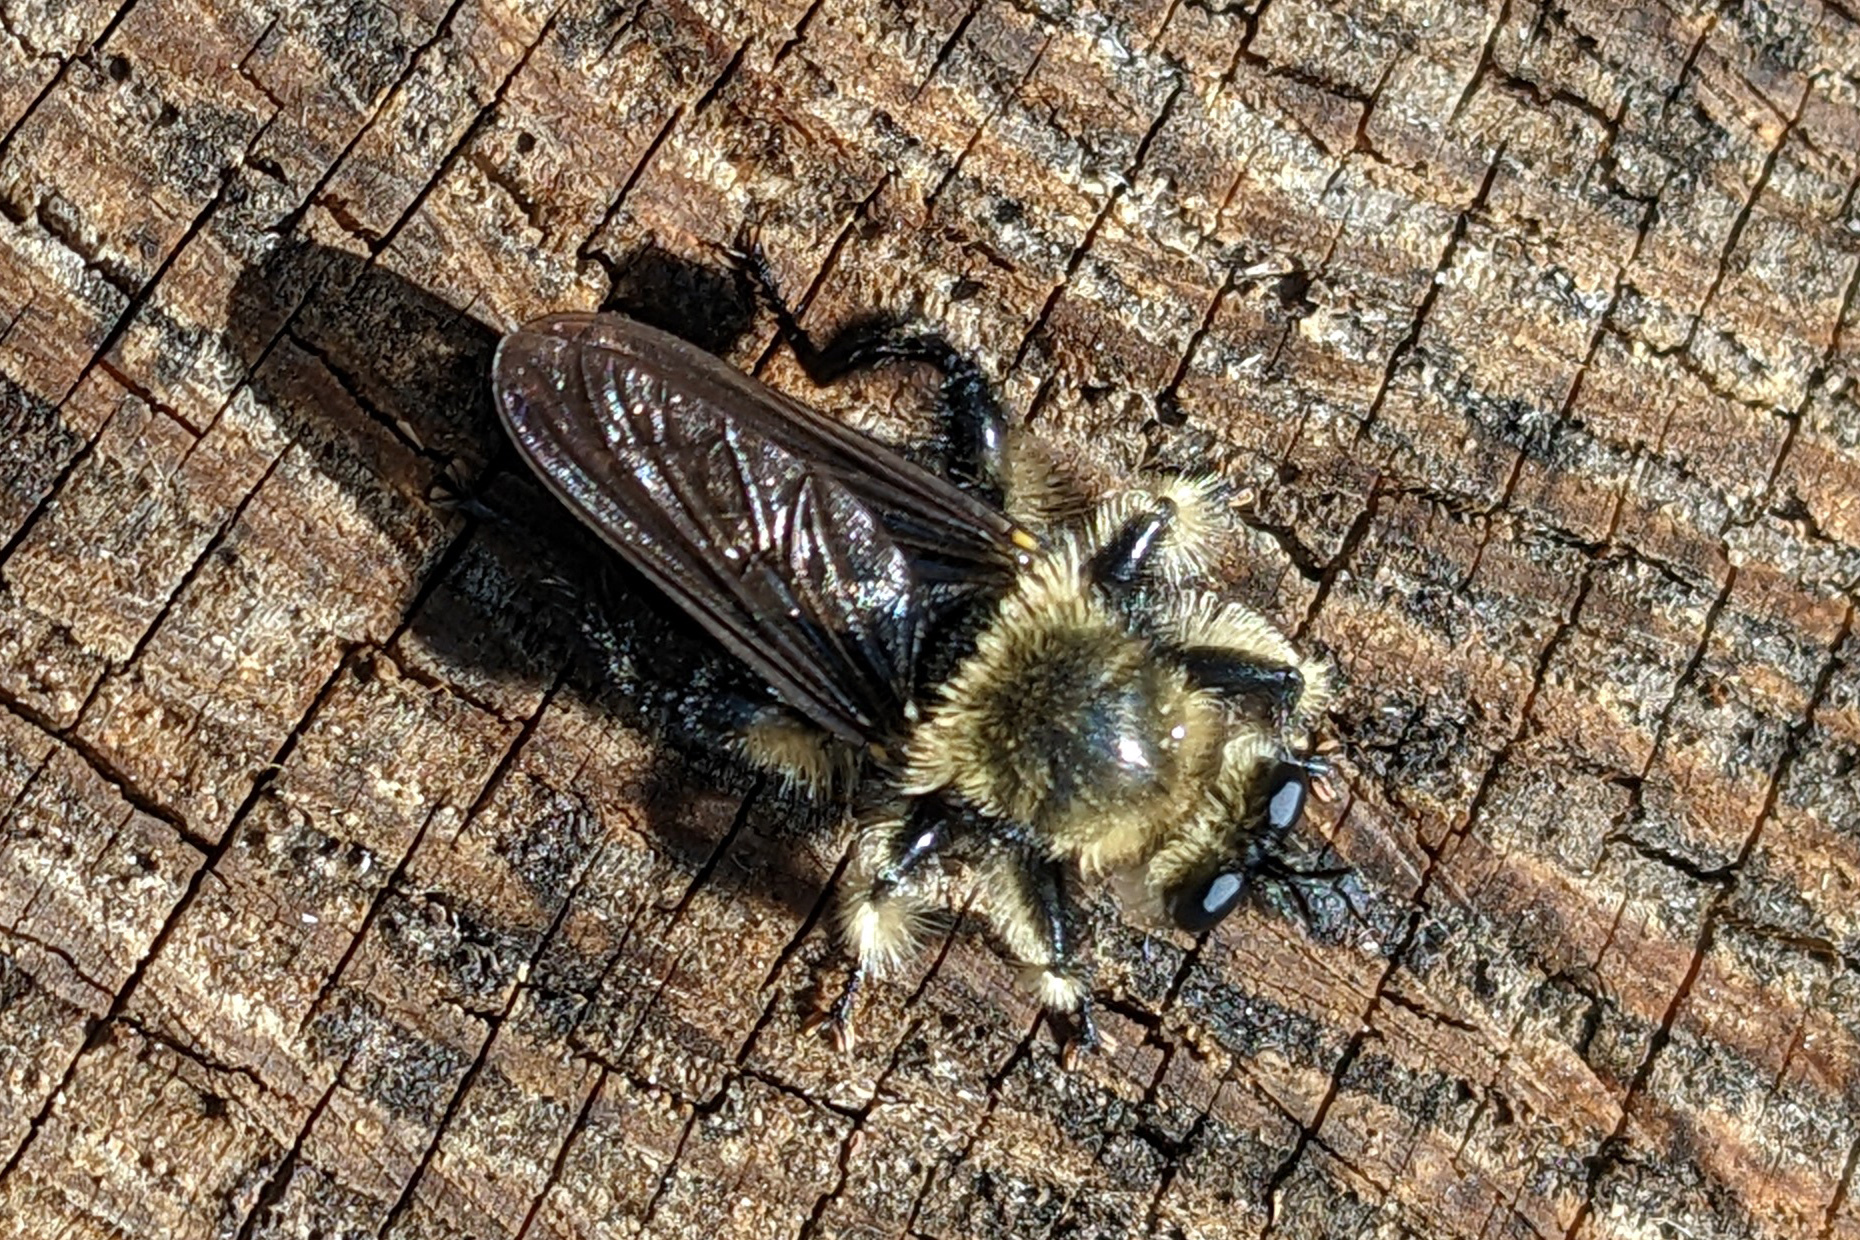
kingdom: Animalia
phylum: Arthropoda
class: Insecta
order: Diptera
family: Asilidae
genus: Laphria
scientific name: Laphria affinis
